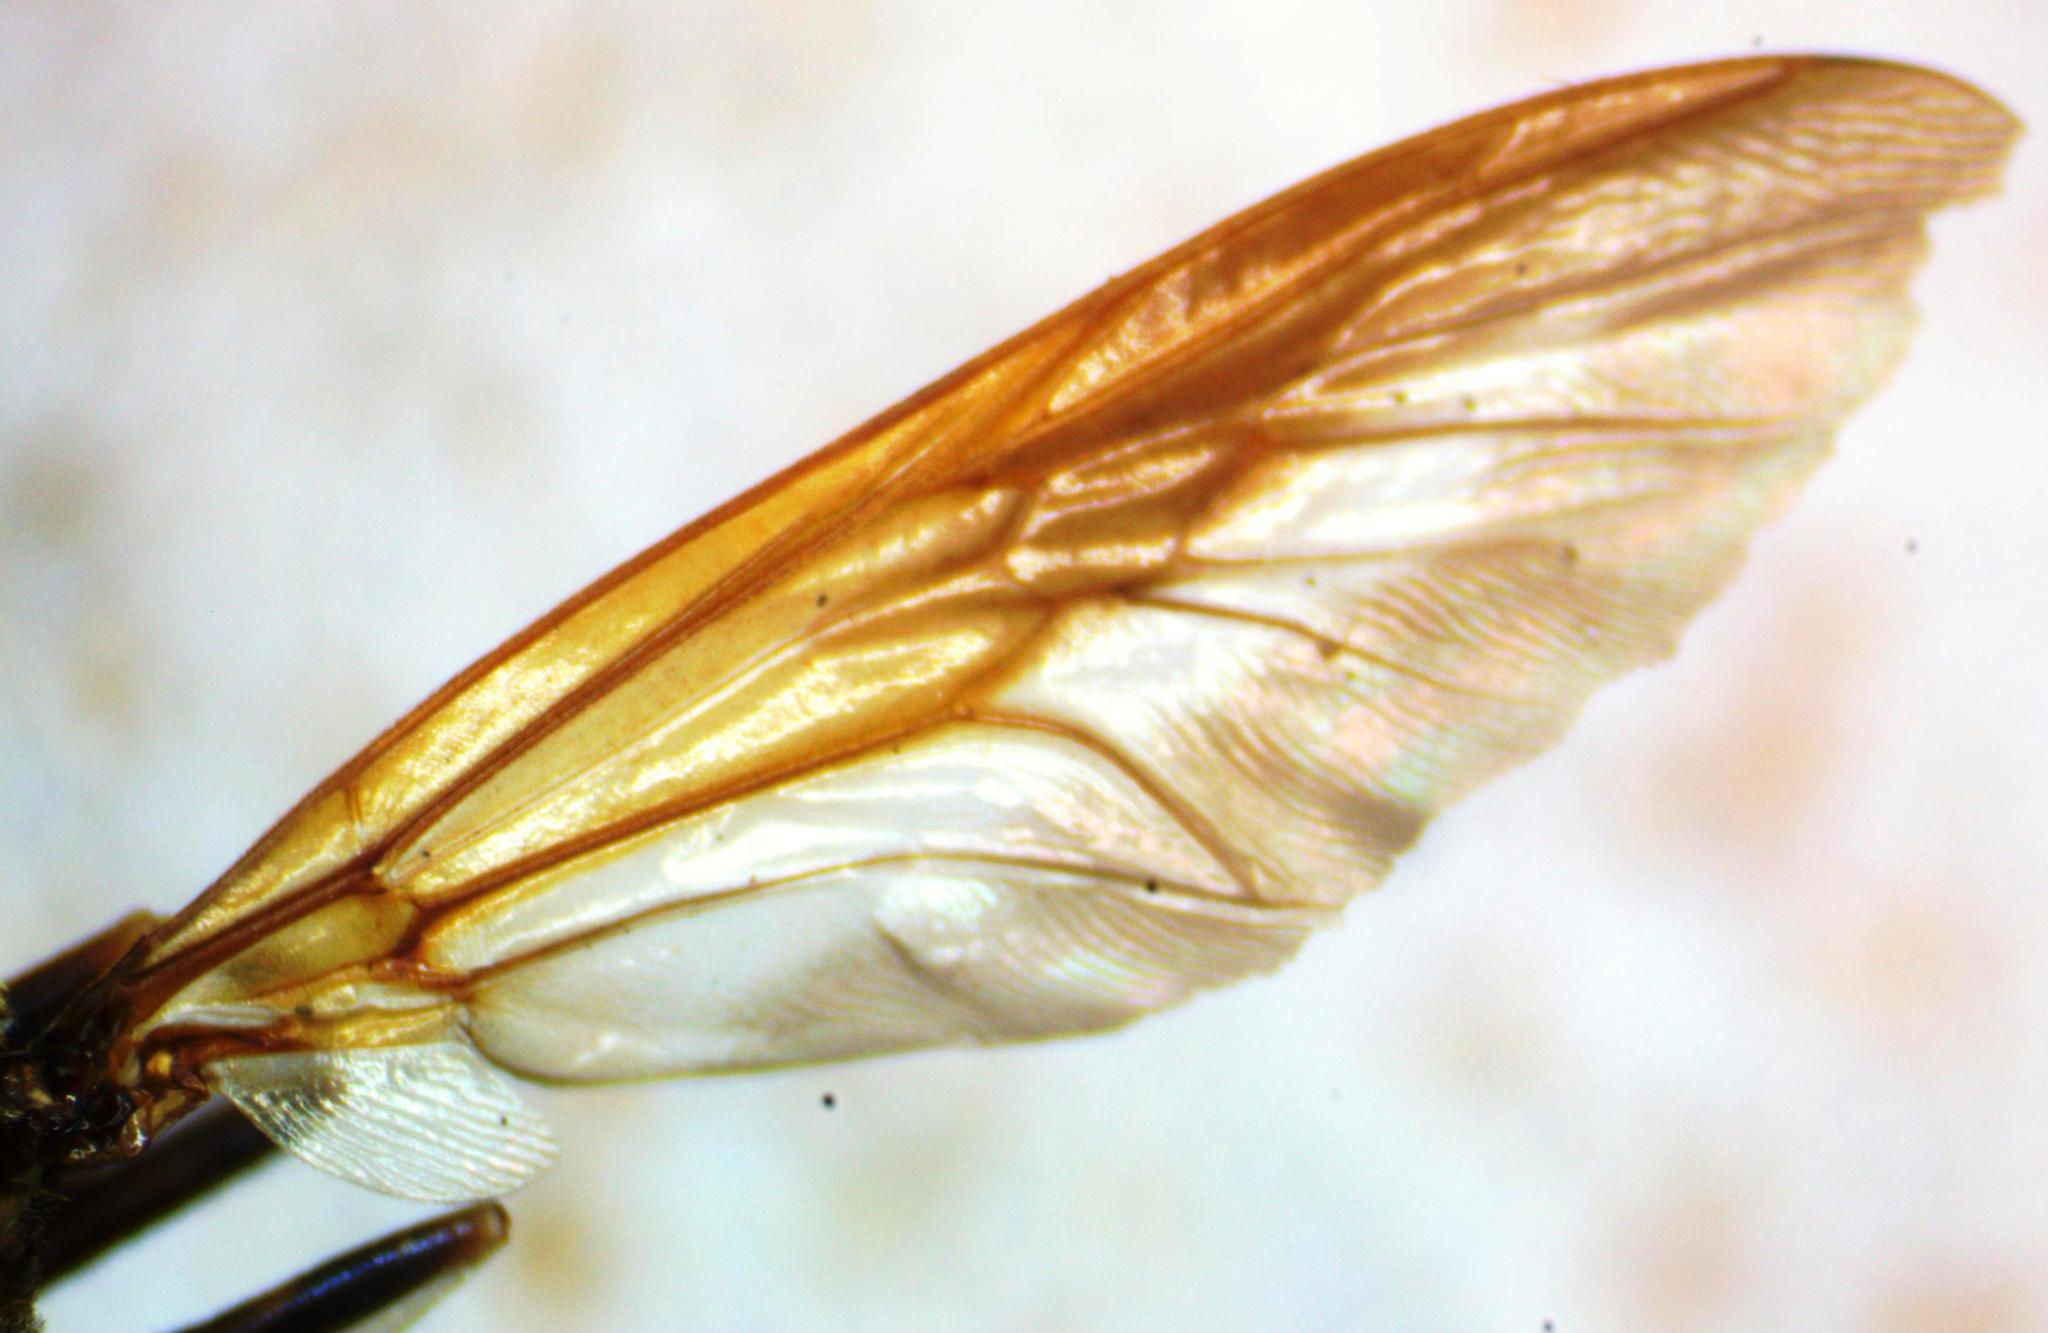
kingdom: Animalia
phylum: Arthropoda
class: Insecta
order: Diptera
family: Stratiomyidae
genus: Hermetia
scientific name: Hermetia anthidium
